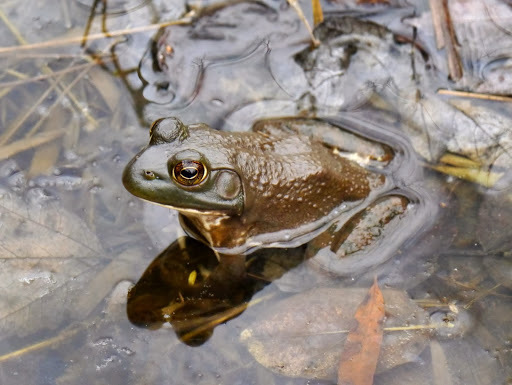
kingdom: Animalia
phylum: Chordata
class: Amphibia
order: Anura
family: Ranidae
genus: Lithobates
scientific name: Lithobates catesbeianus
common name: American bullfrog
